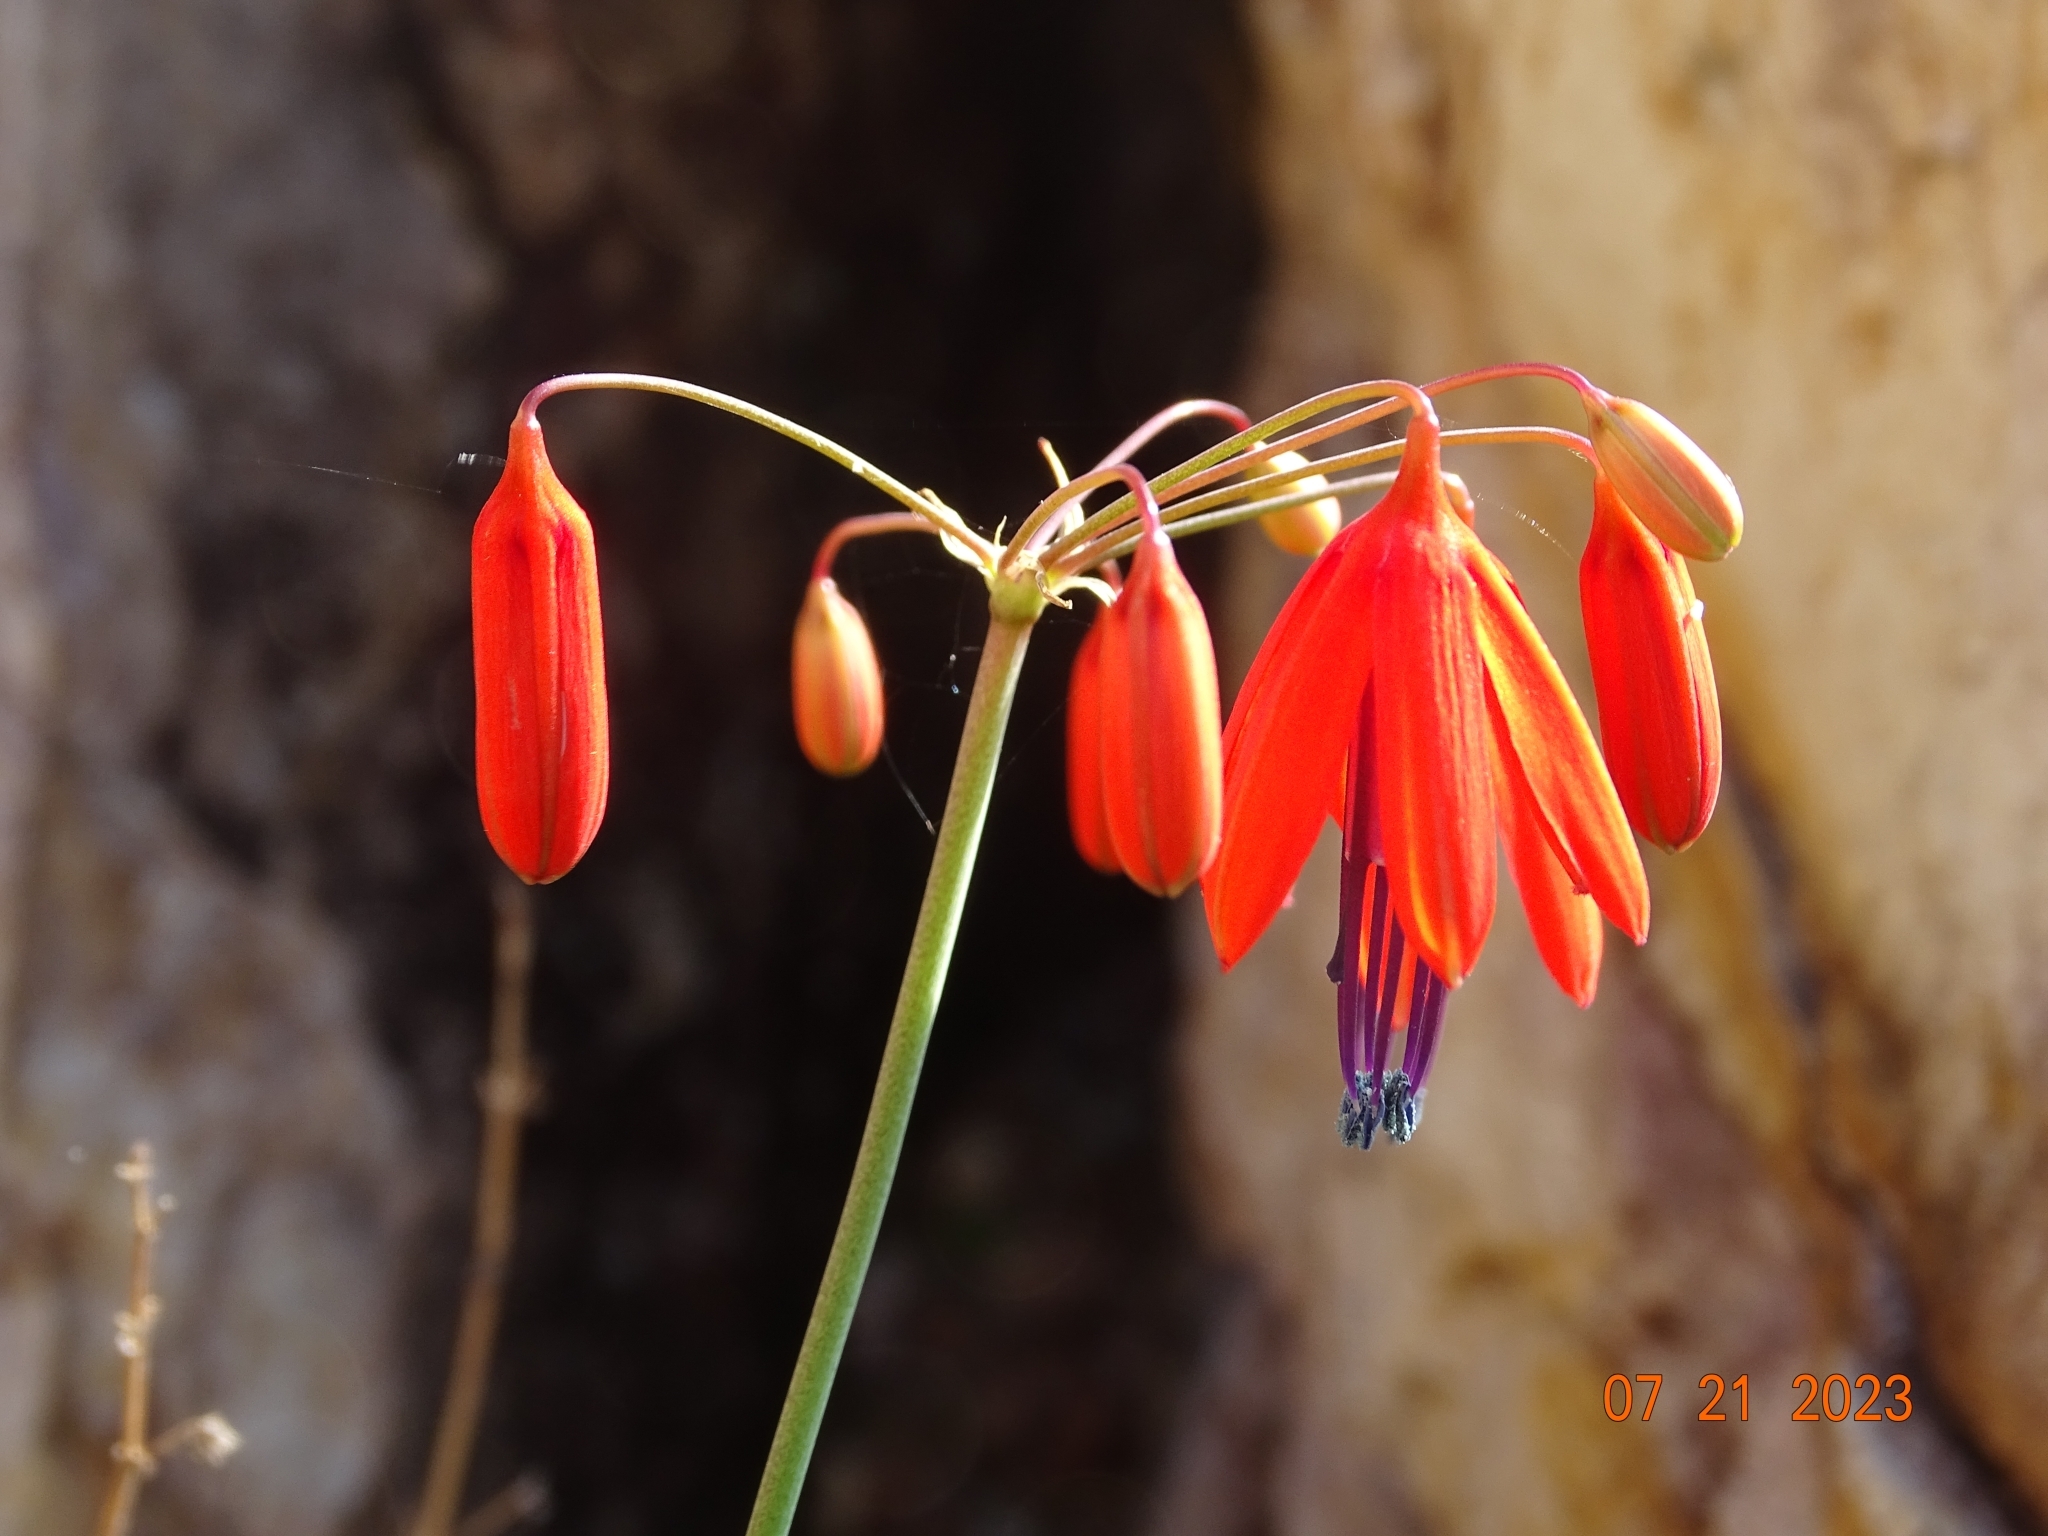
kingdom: Plantae
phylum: Tracheophyta
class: Liliopsida
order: Asparagales
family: Asparagaceae
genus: Bessera
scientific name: Bessera elegans
